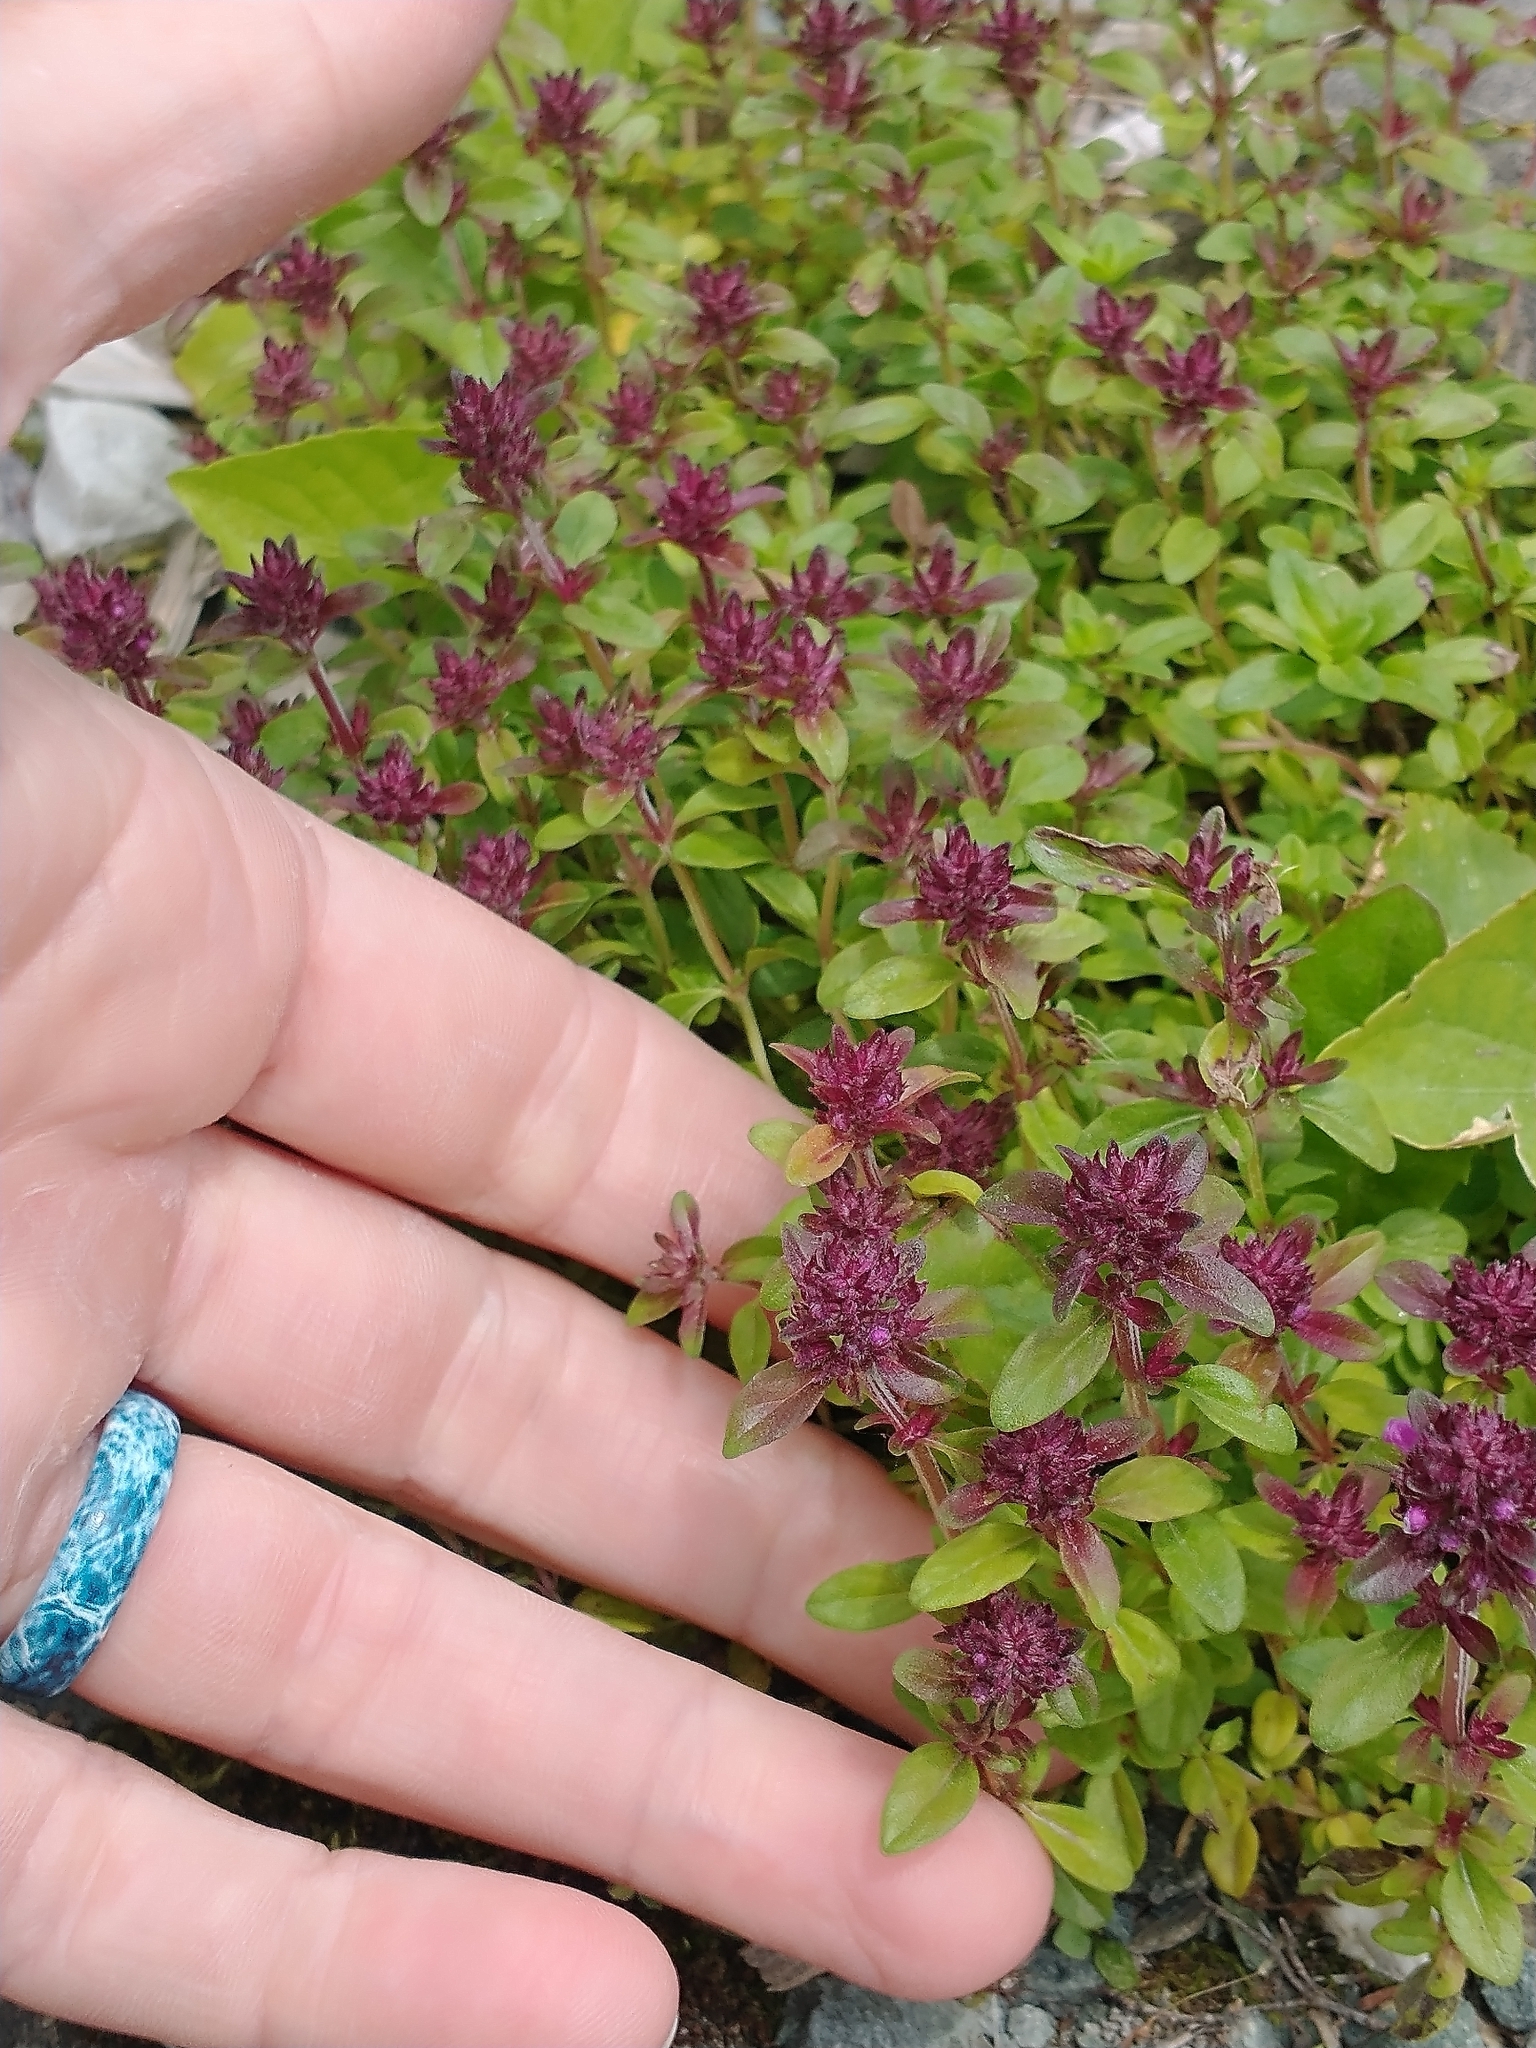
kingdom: Plantae
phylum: Tracheophyta
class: Magnoliopsida
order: Lamiales
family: Lamiaceae
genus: Thymus
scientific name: Thymus pulegioides
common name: Large thyme
